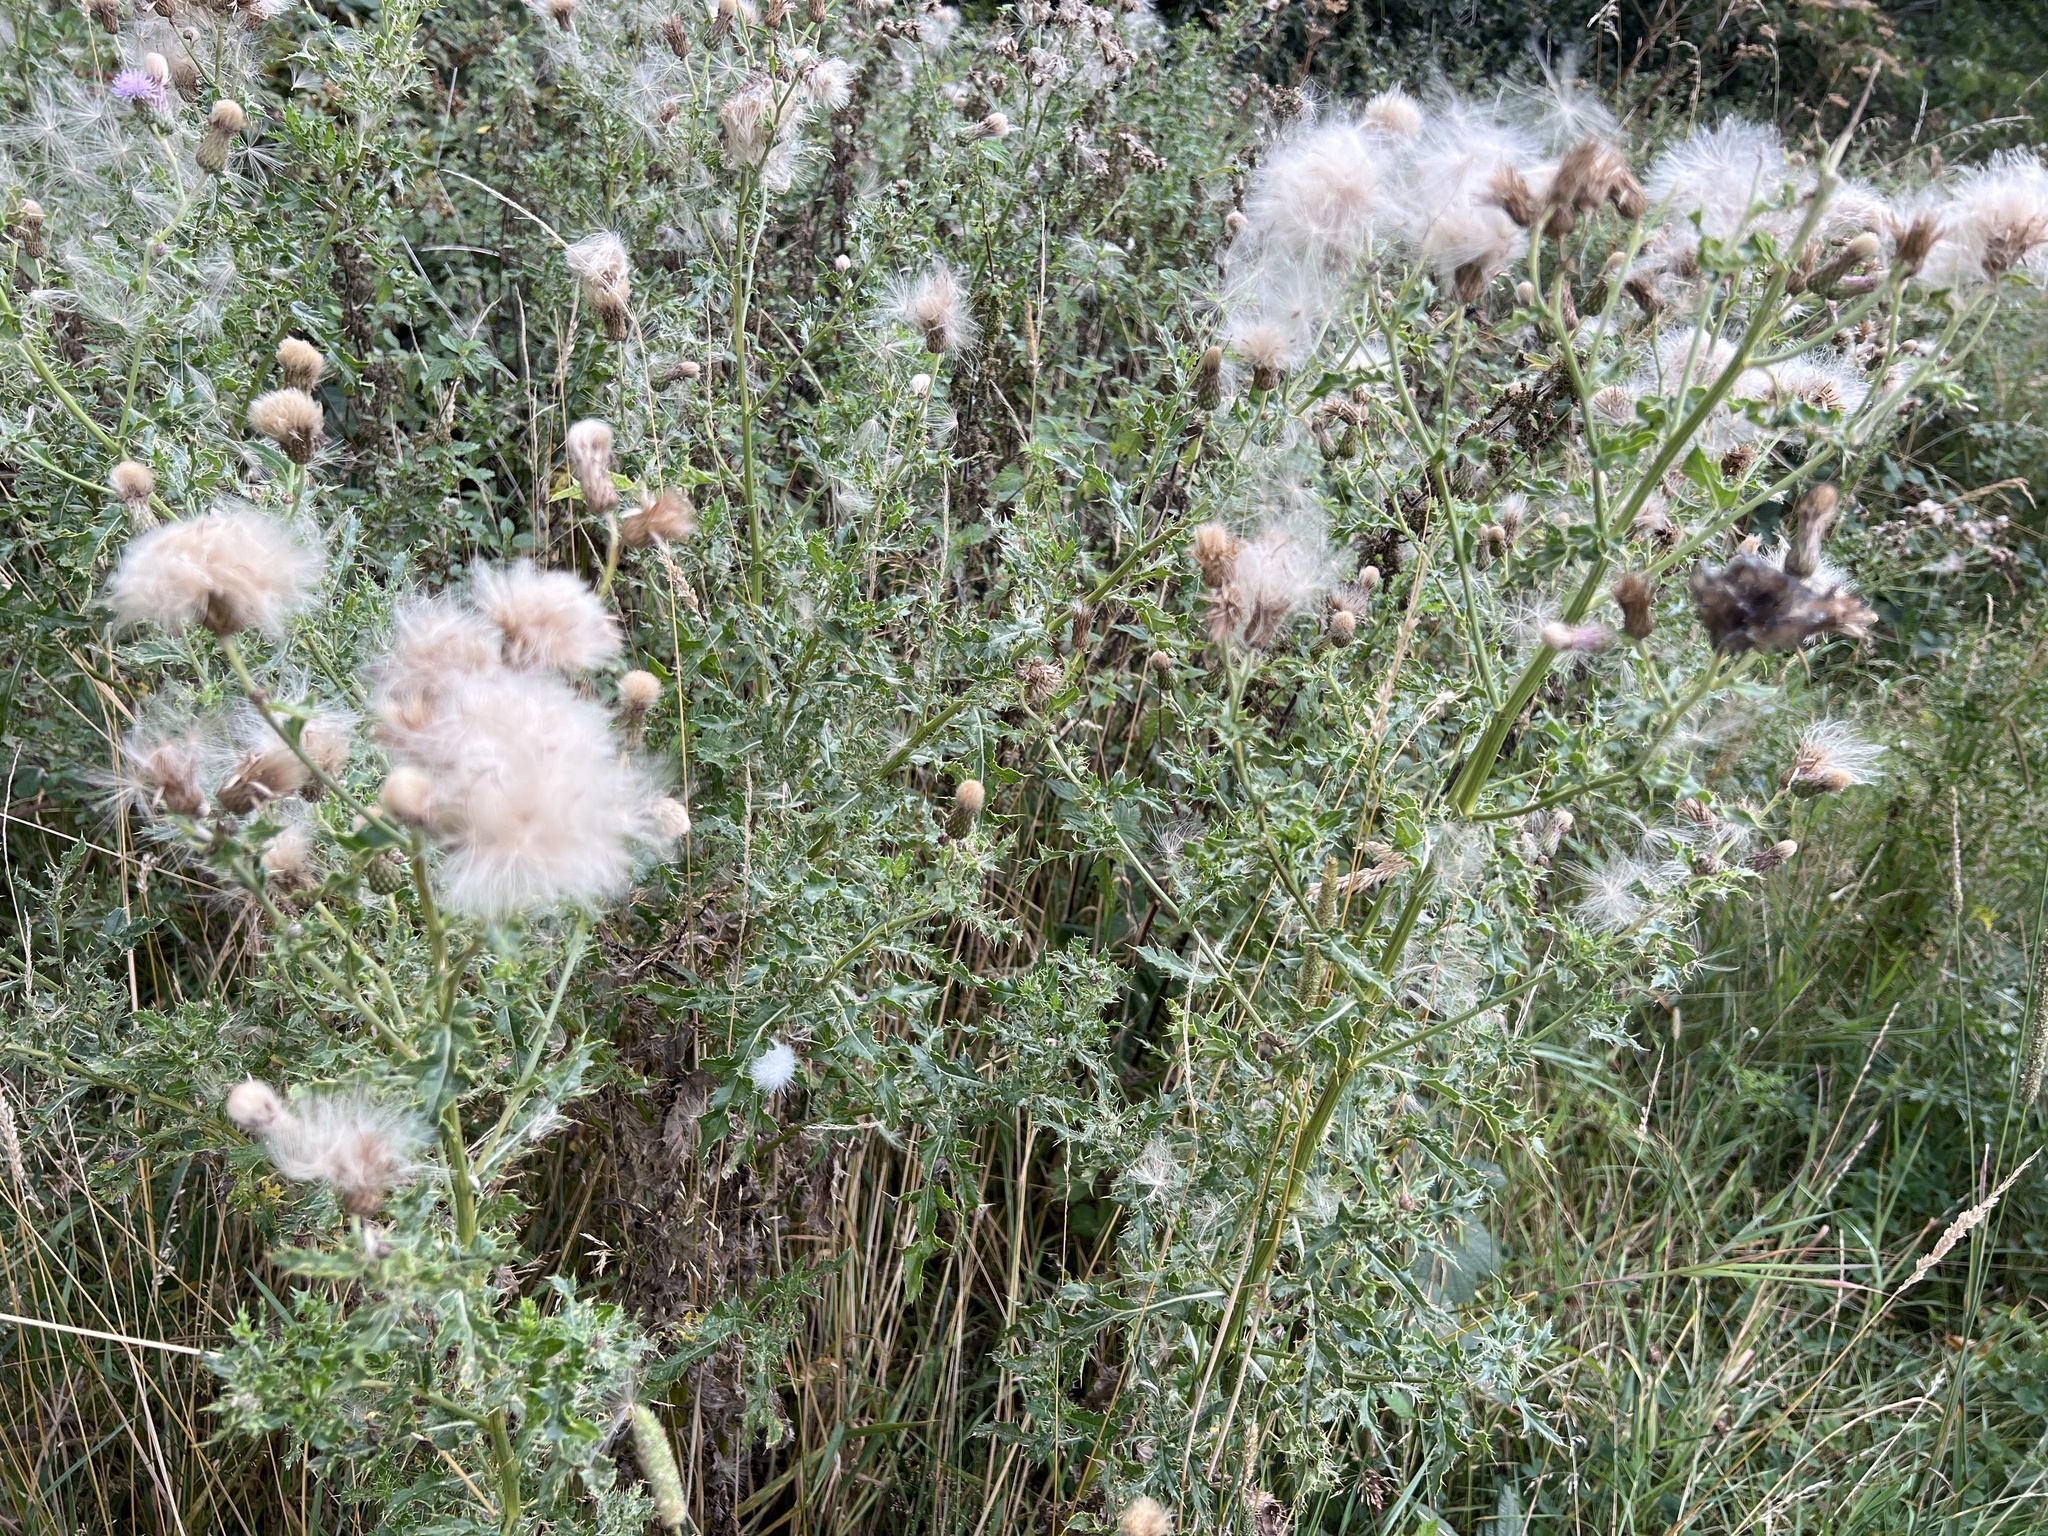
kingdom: Plantae
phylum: Tracheophyta
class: Magnoliopsida
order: Asterales
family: Asteraceae
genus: Cirsium
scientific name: Cirsium arvense
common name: Creeping thistle
